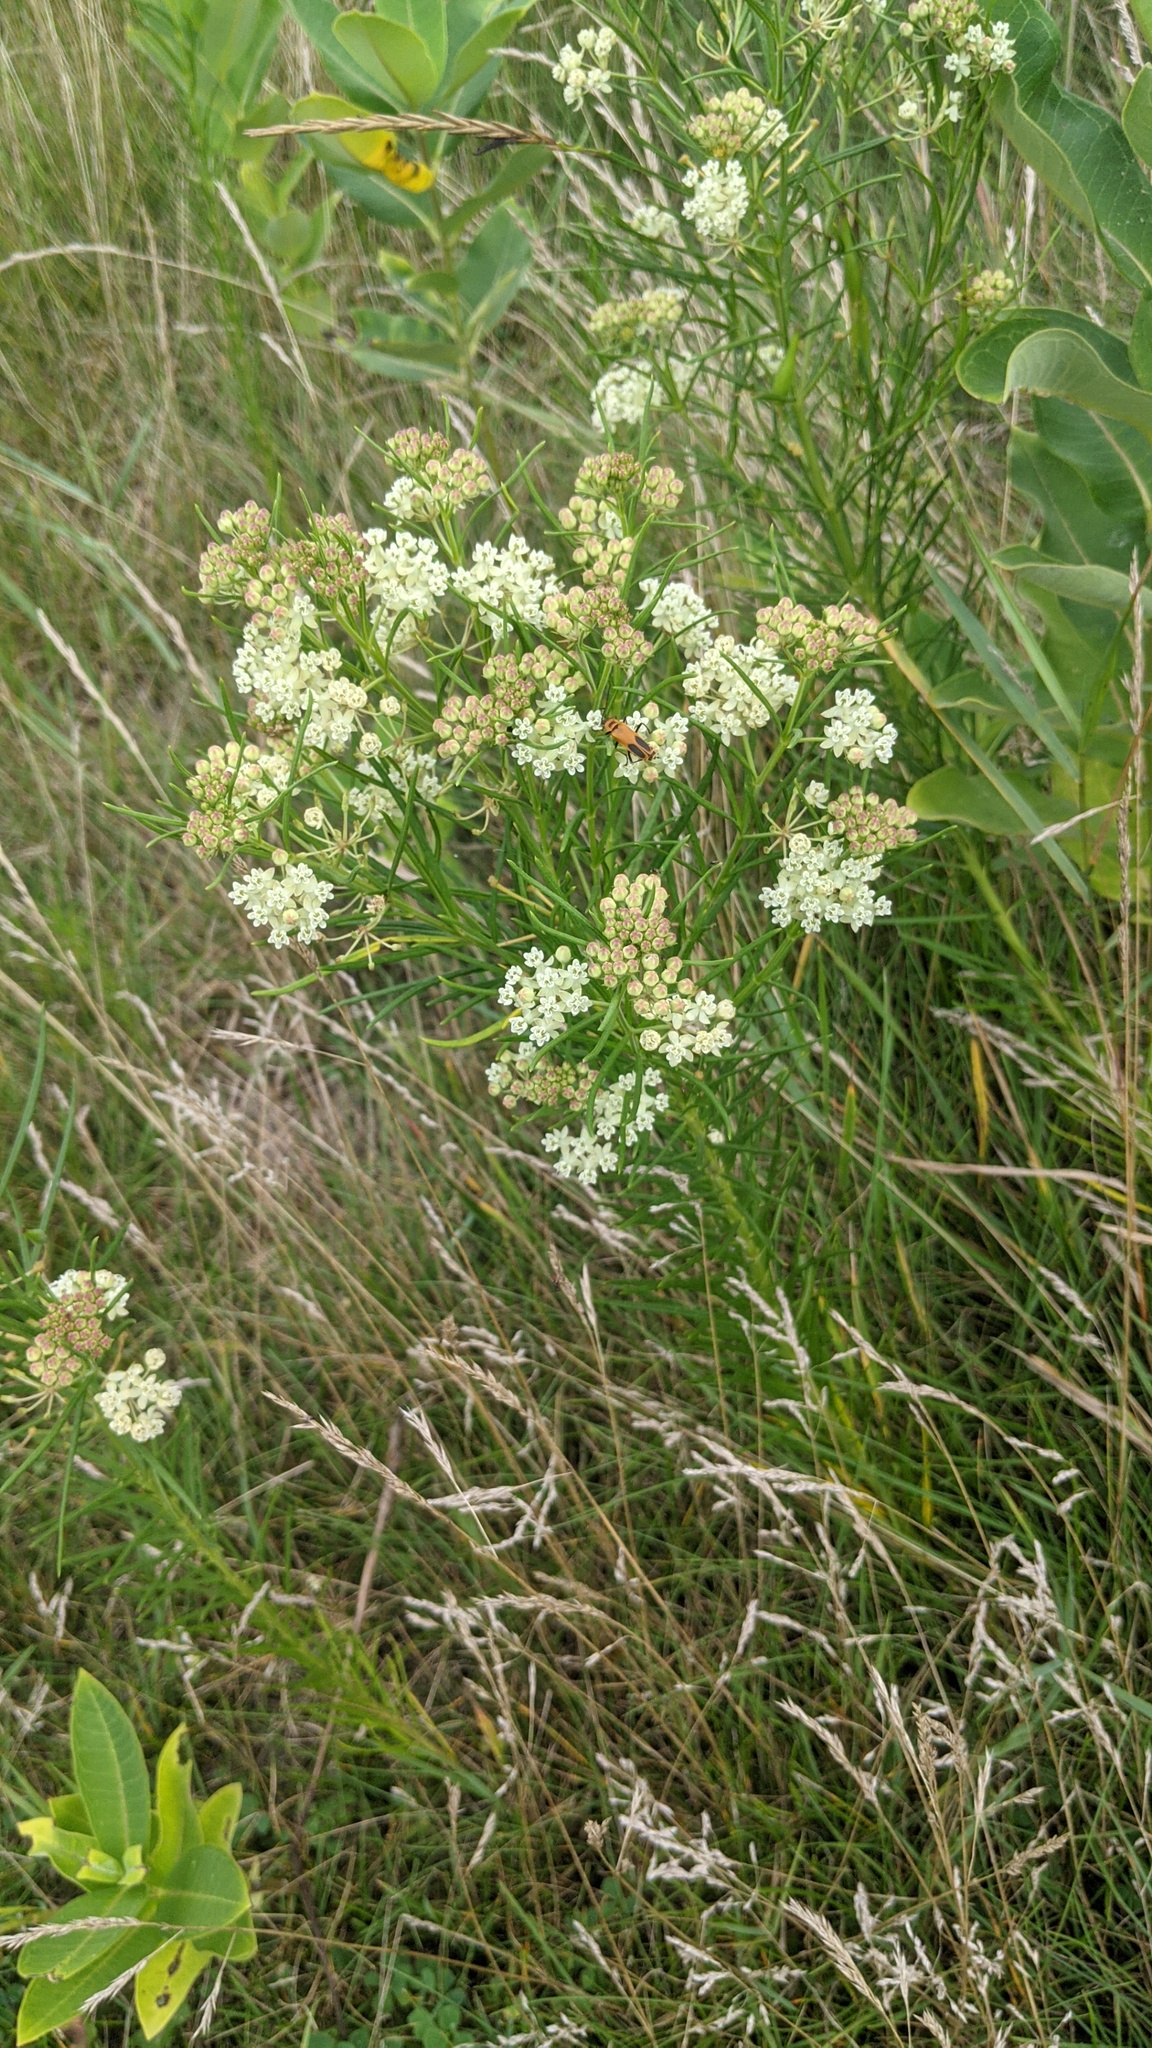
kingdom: Plantae
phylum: Tracheophyta
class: Magnoliopsida
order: Gentianales
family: Apocynaceae
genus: Asclepias
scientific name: Asclepias verticillata
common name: Eastern whorled milkweed
